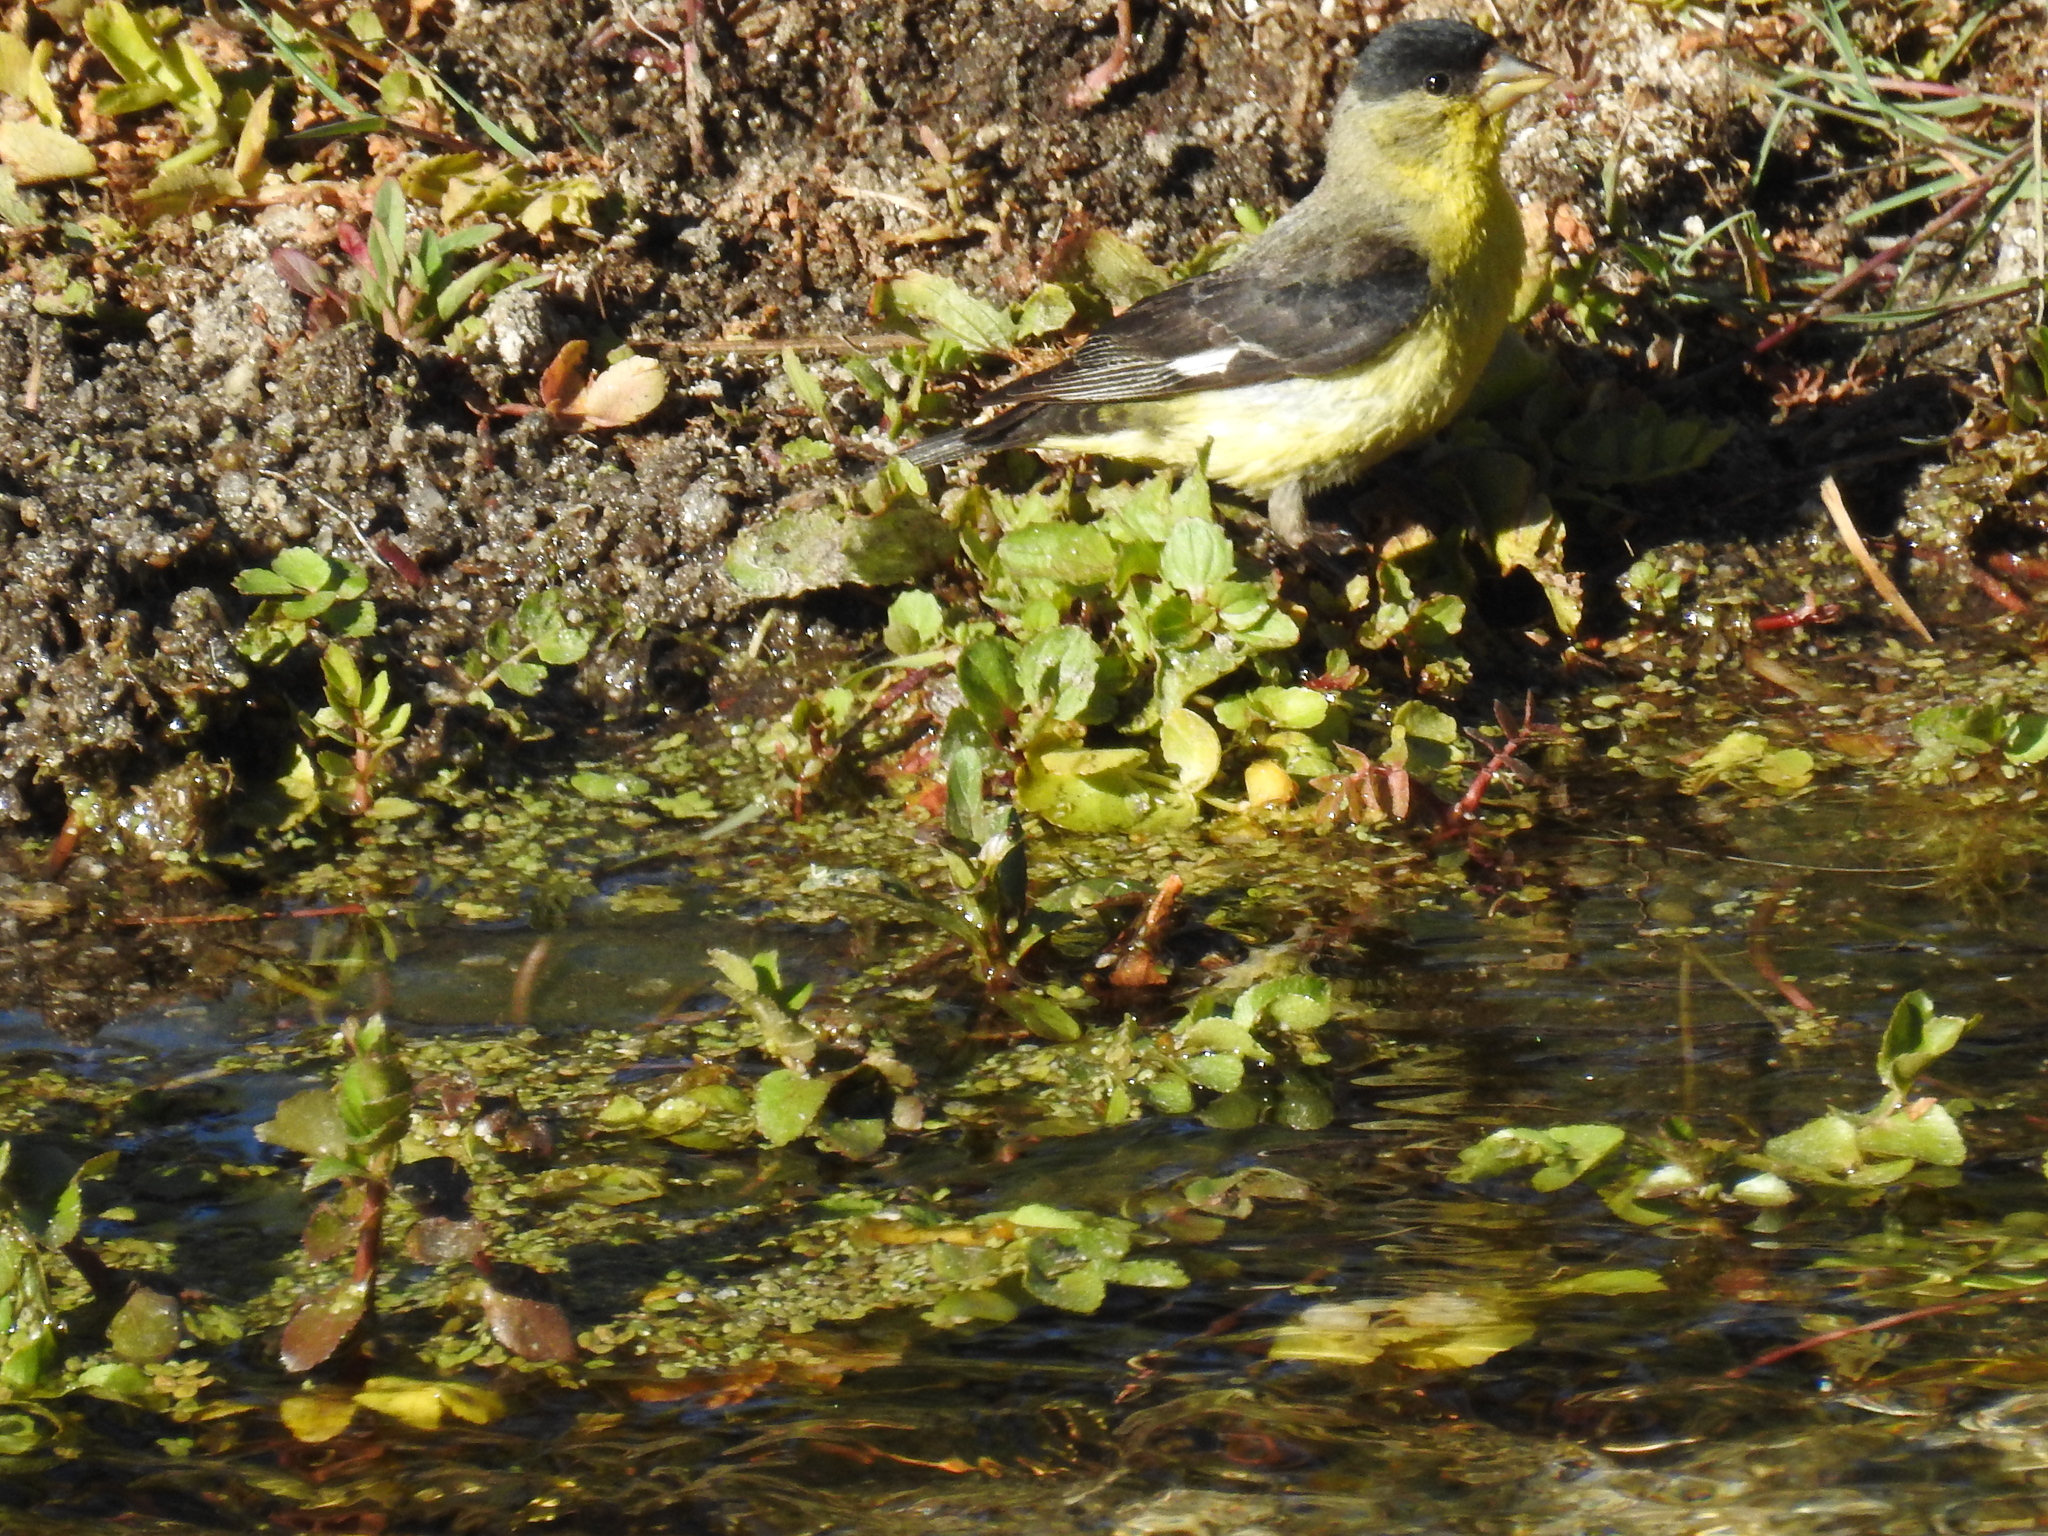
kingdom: Animalia
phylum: Chordata
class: Aves
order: Passeriformes
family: Fringillidae
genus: Spinus
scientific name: Spinus psaltria
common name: Lesser goldfinch
